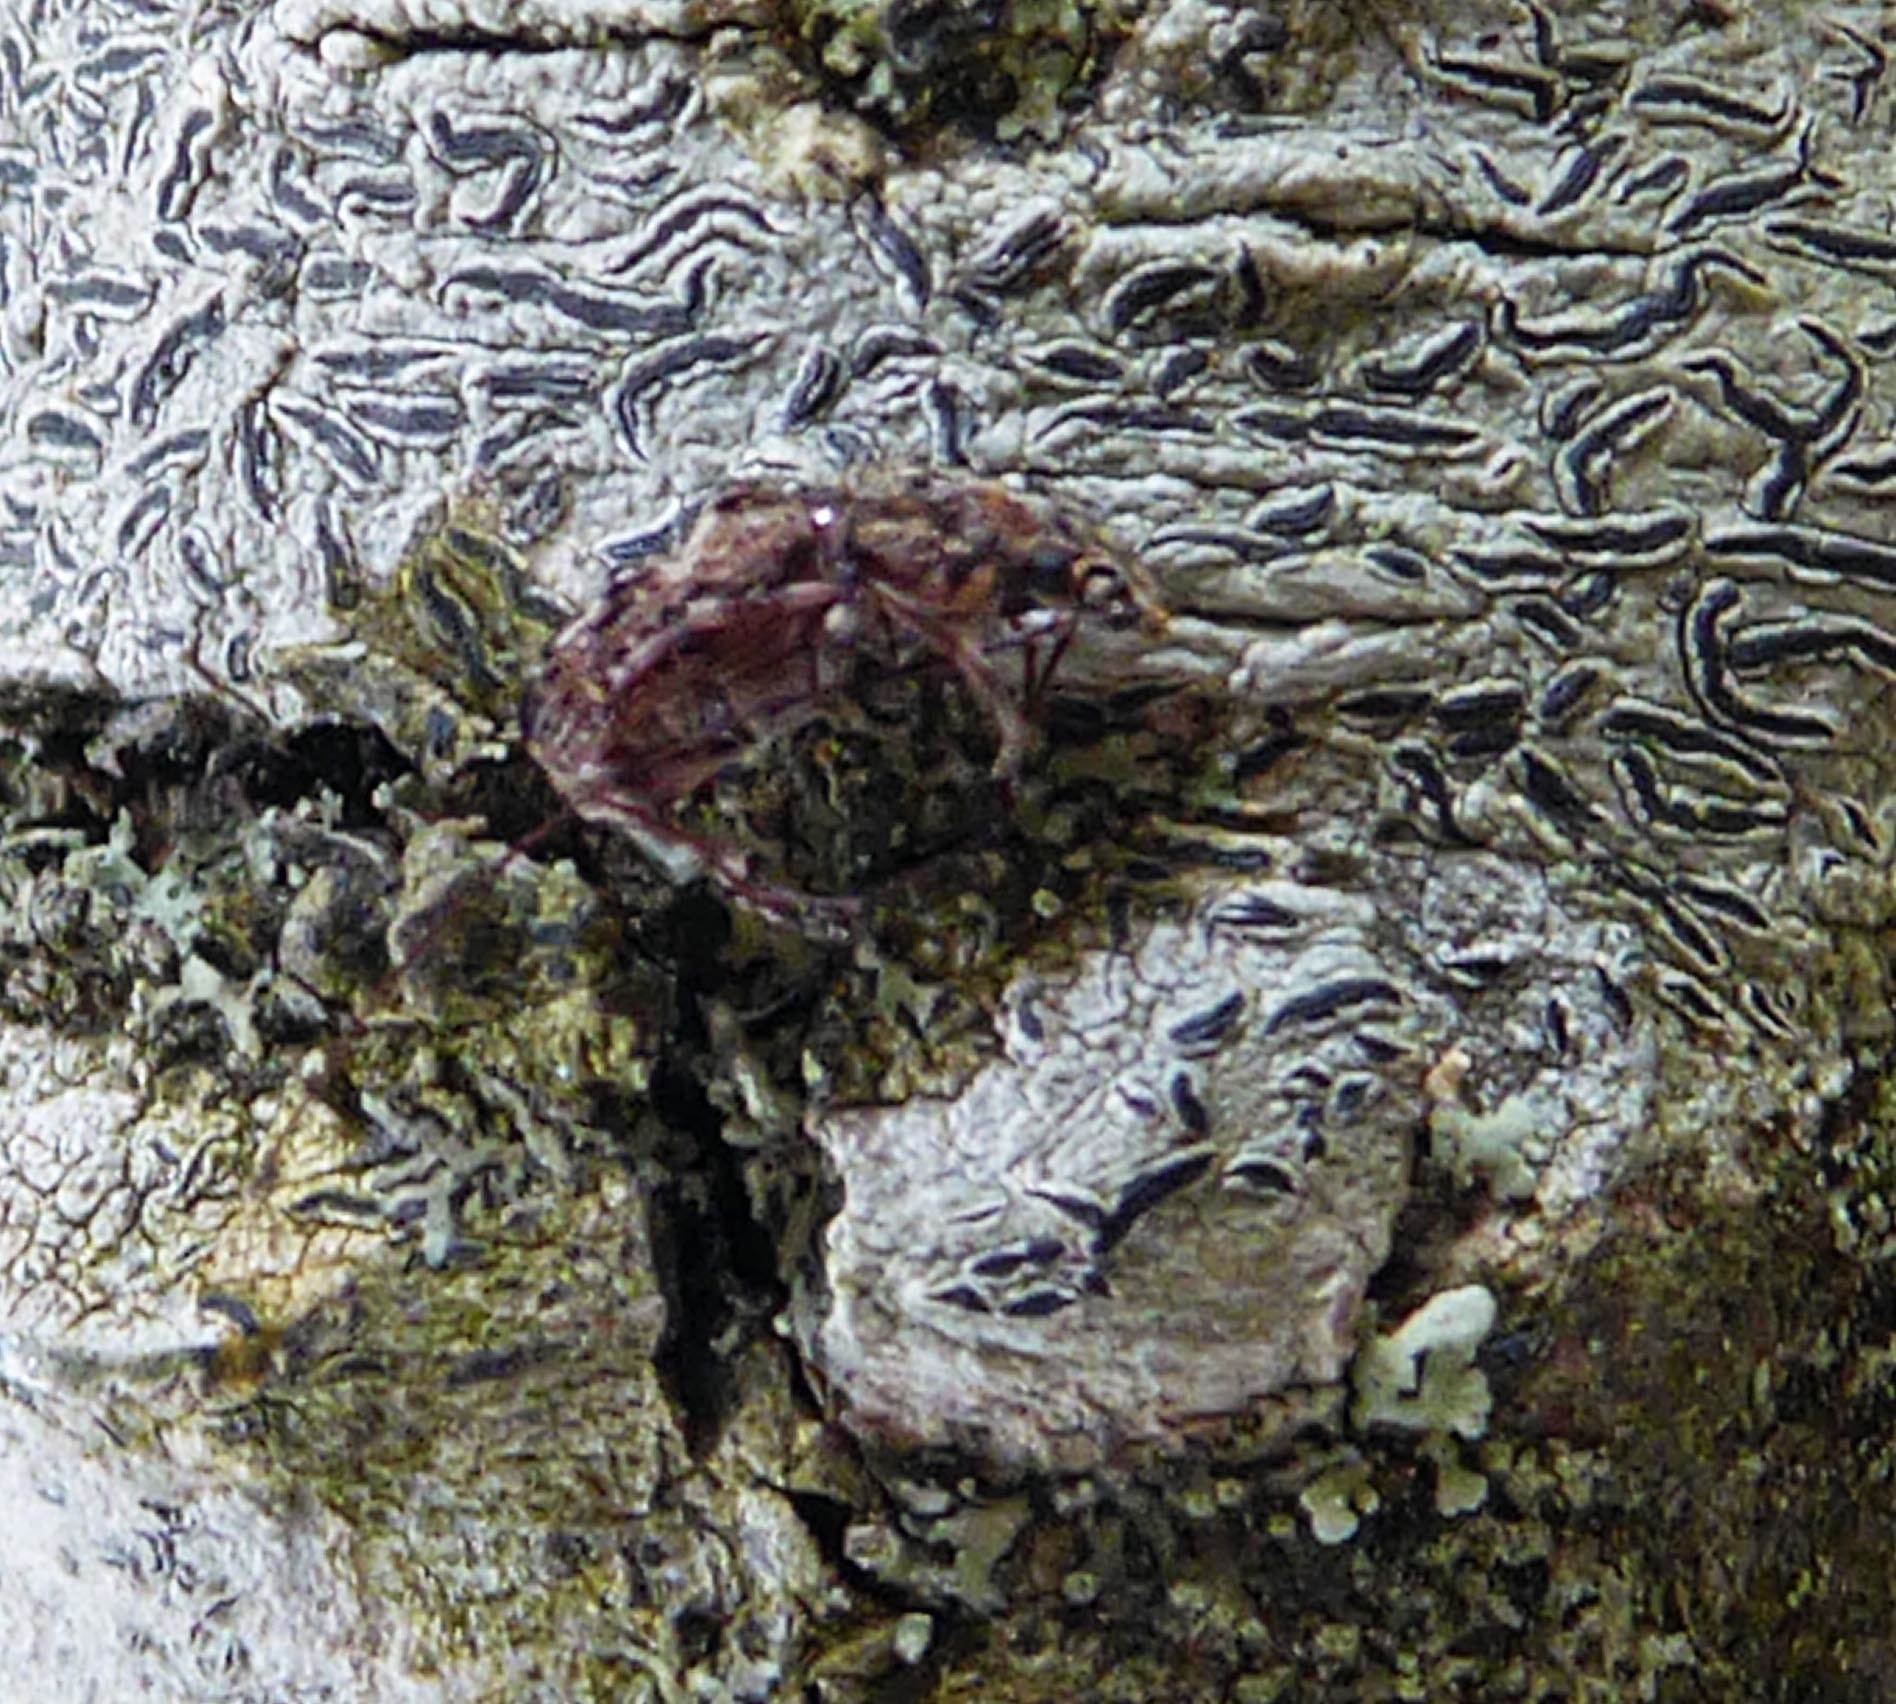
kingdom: Animalia
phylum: Arthropoda
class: Insecta
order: Coleoptera
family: Anthribidae
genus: Androporus
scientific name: Androporus
